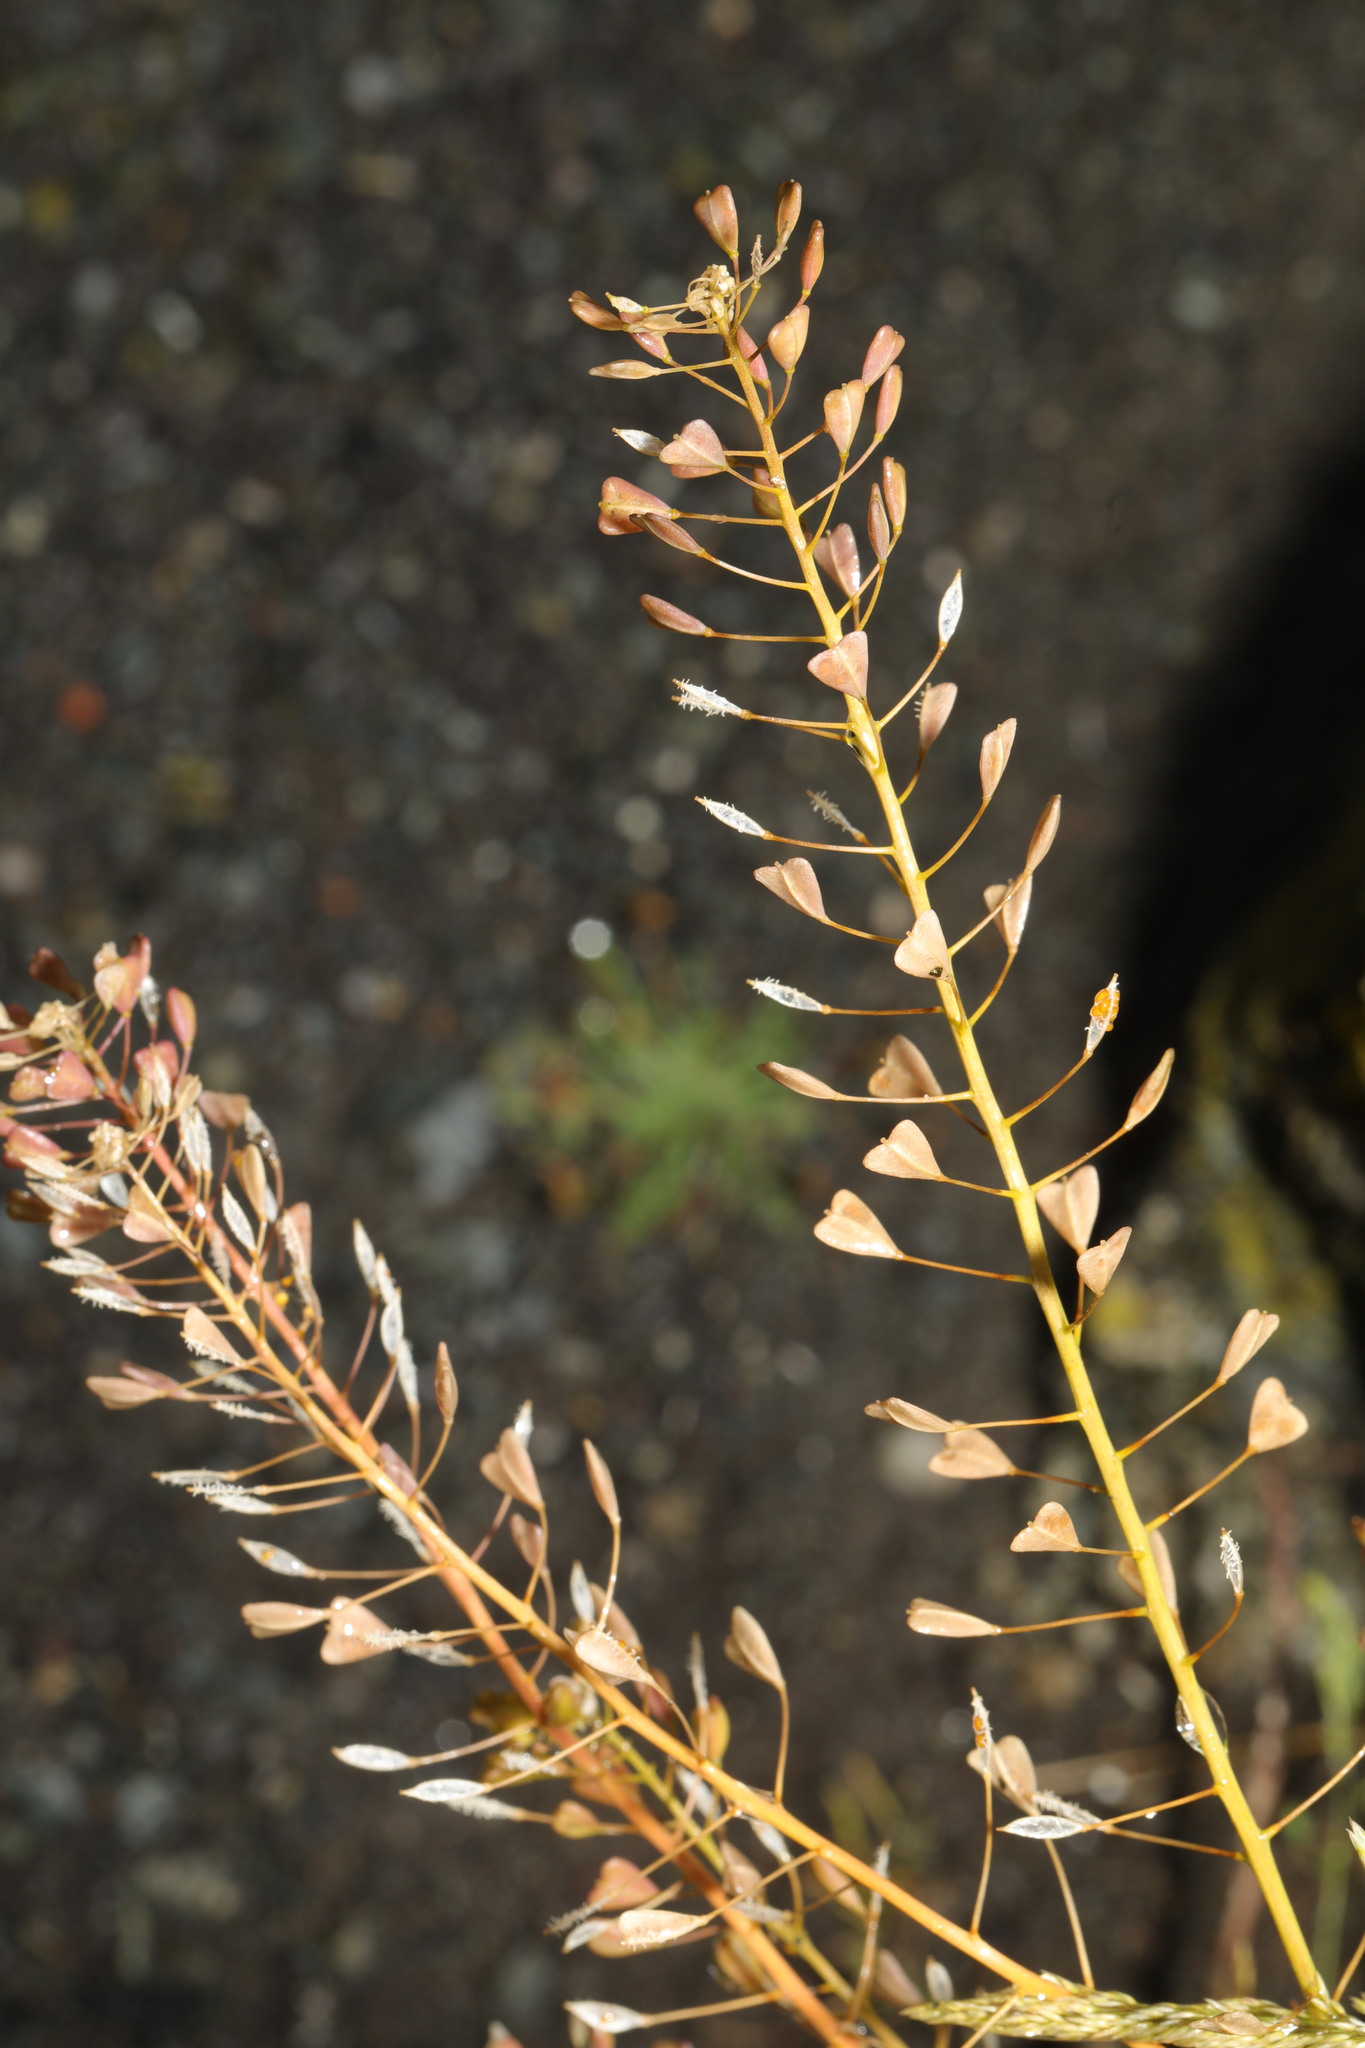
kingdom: Plantae
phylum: Tracheophyta
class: Magnoliopsida
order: Brassicales
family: Brassicaceae
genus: Capsella
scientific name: Capsella bursa-pastoris
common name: Shepherd's purse
